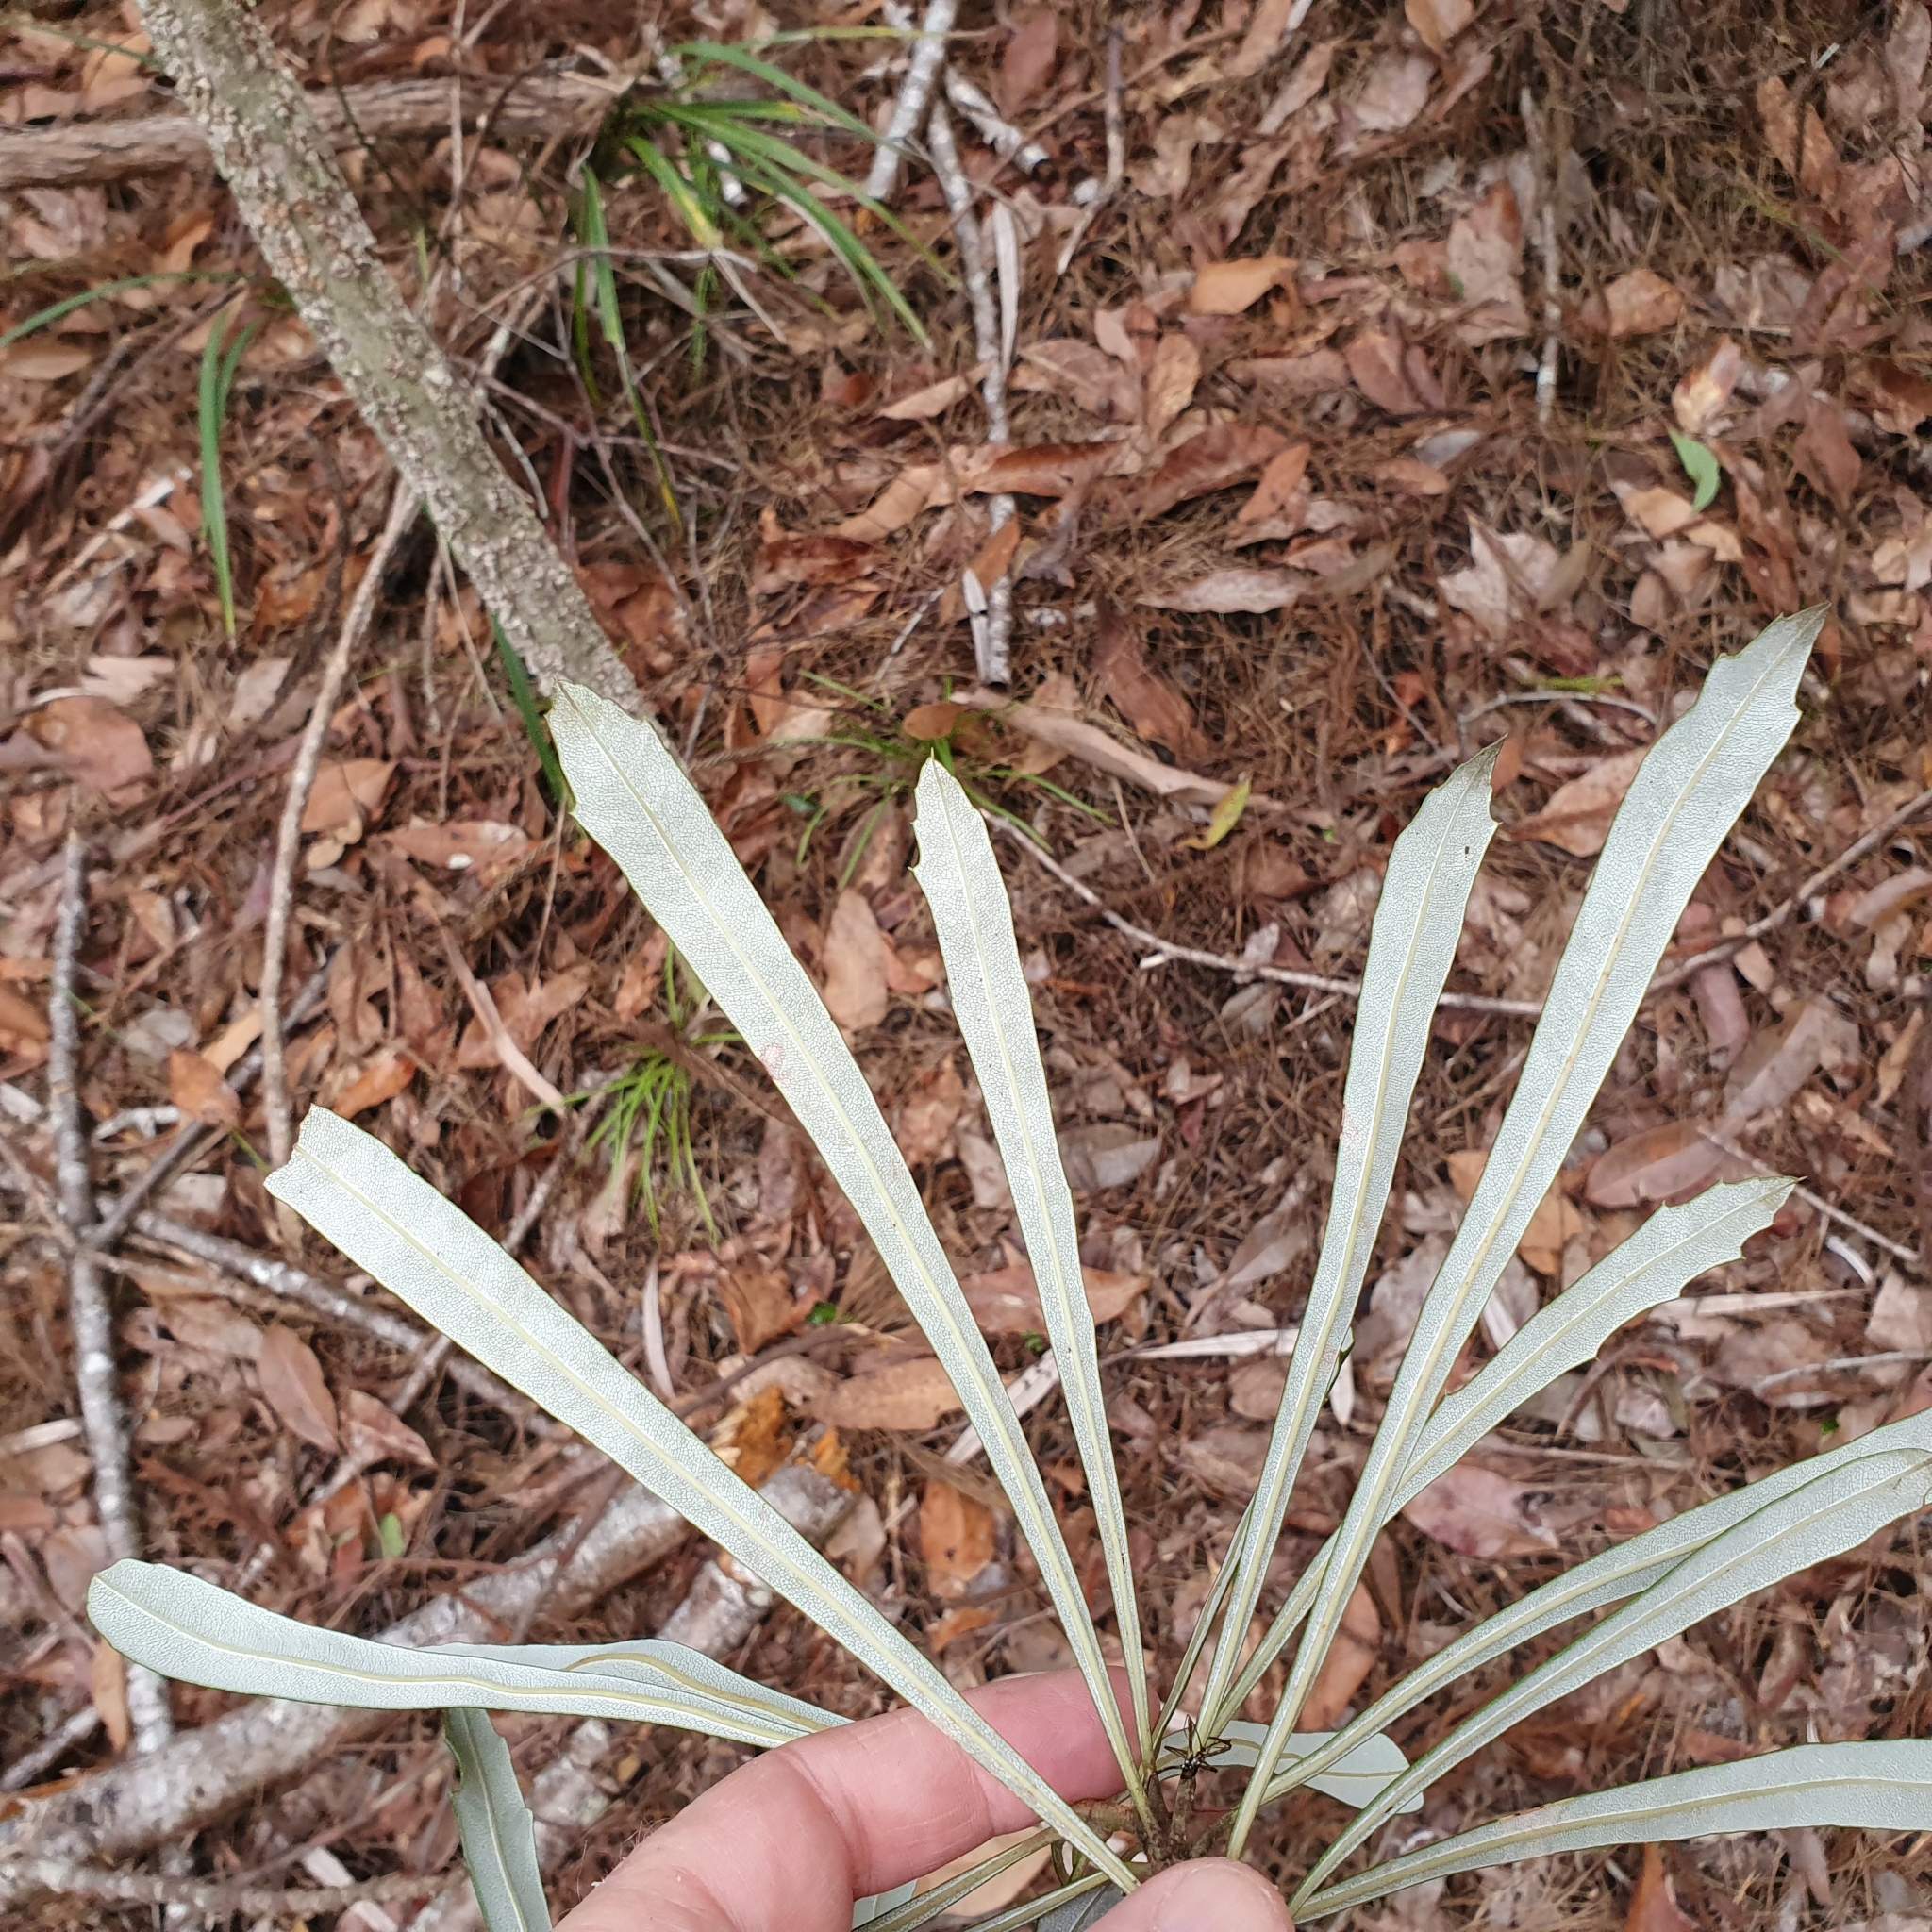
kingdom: Plantae
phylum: Tracheophyta
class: Magnoliopsida
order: Proteales
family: Proteaceae
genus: Banksia
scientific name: Banksia integrifolia
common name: White-honeysuckle
